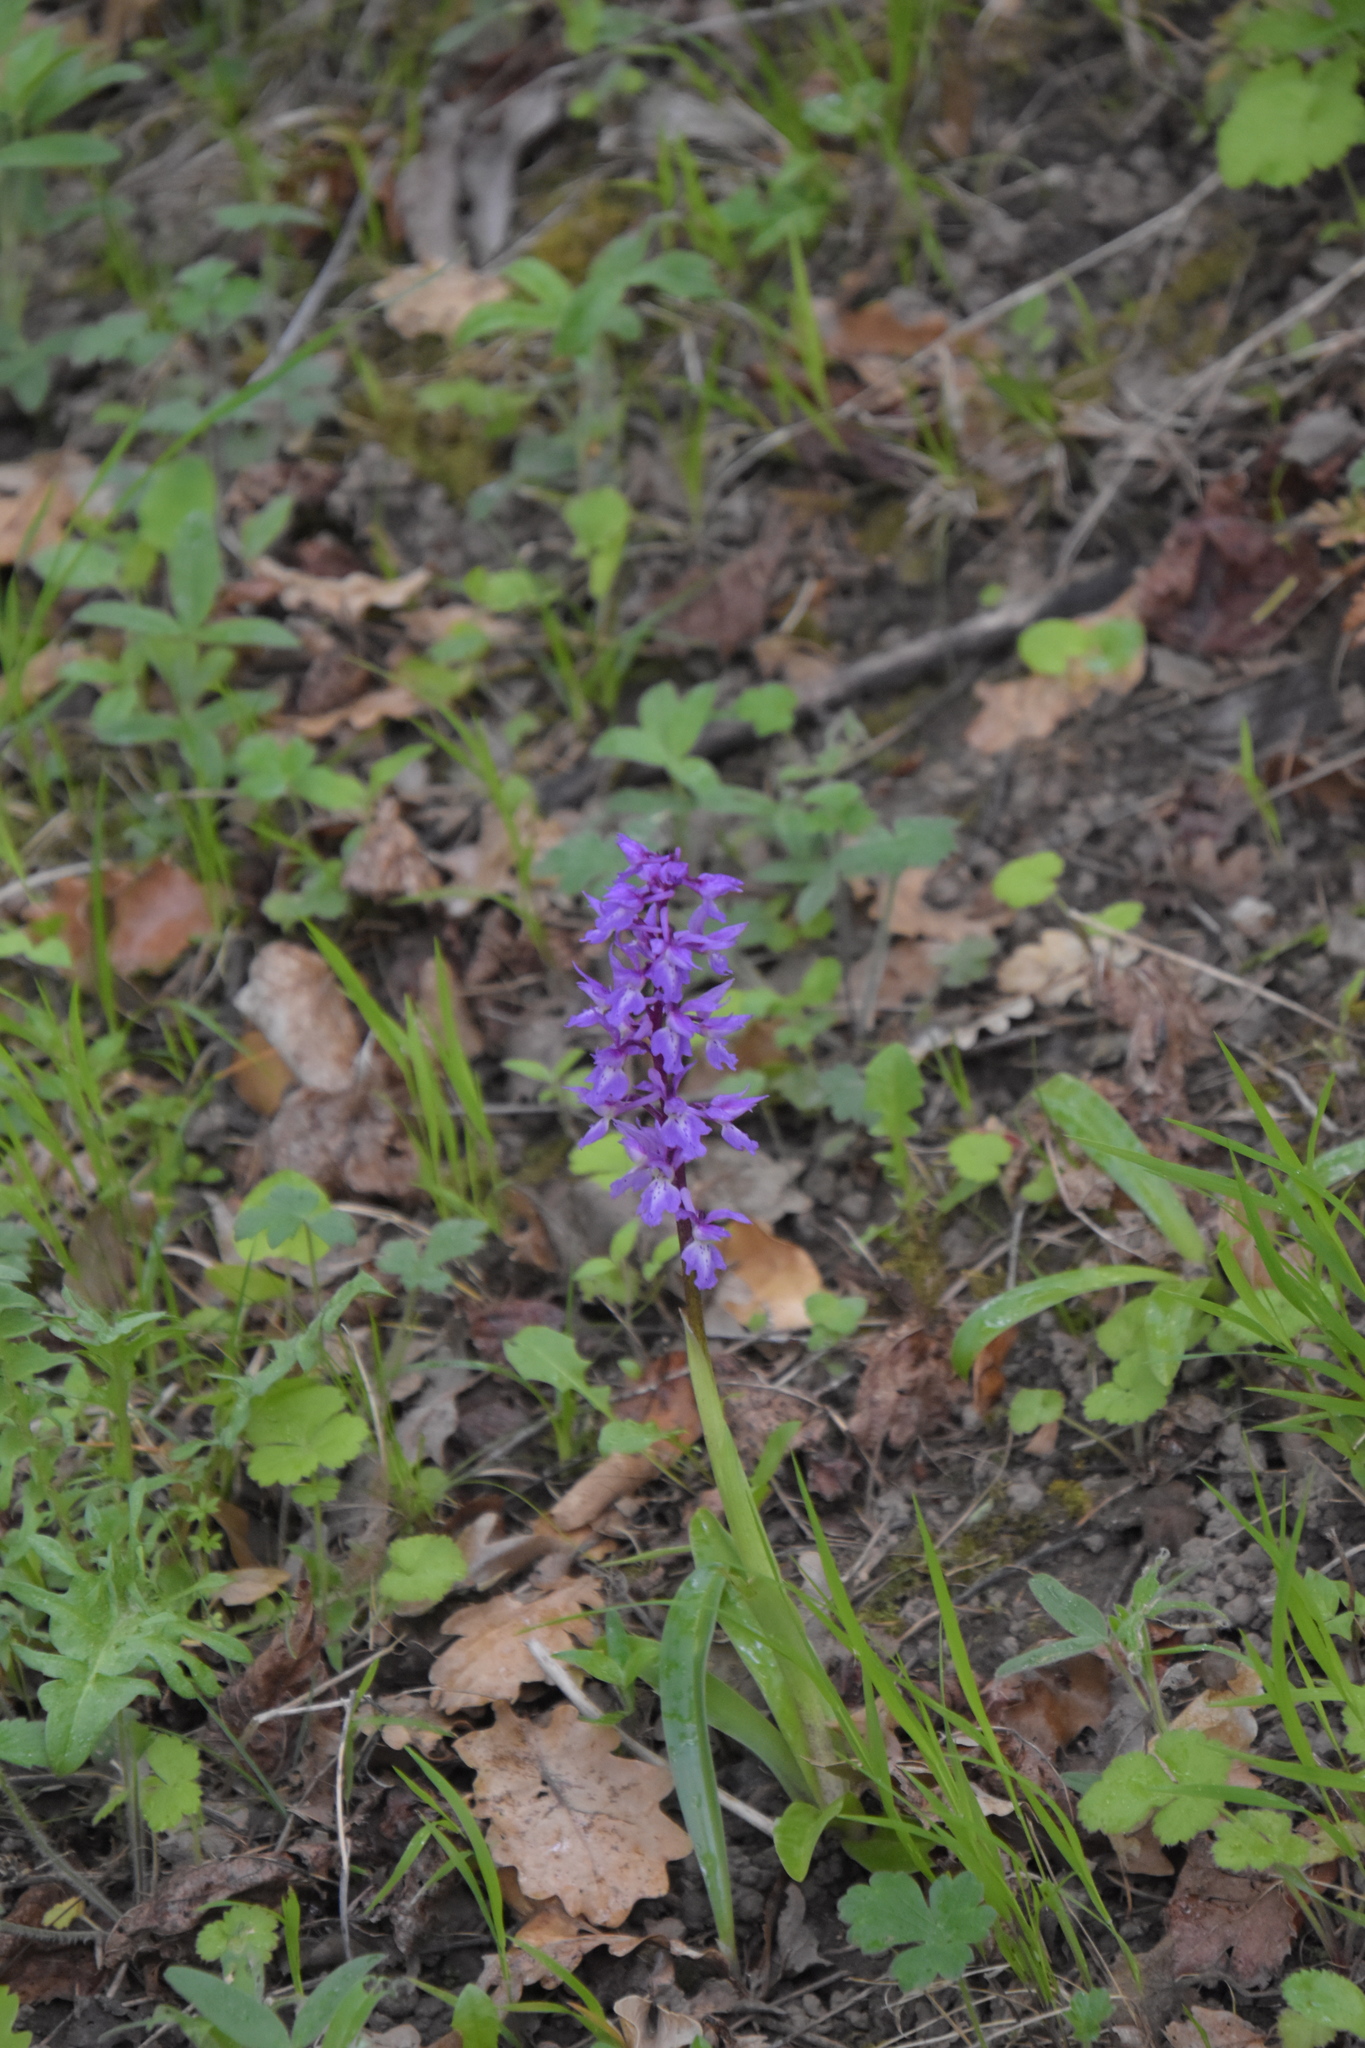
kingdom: Plantae
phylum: Tracheophyta
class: Liliopsida
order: Asparagales
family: Orchidaceae
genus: Orchis
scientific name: Orchis mascula
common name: Early-purple orchid
